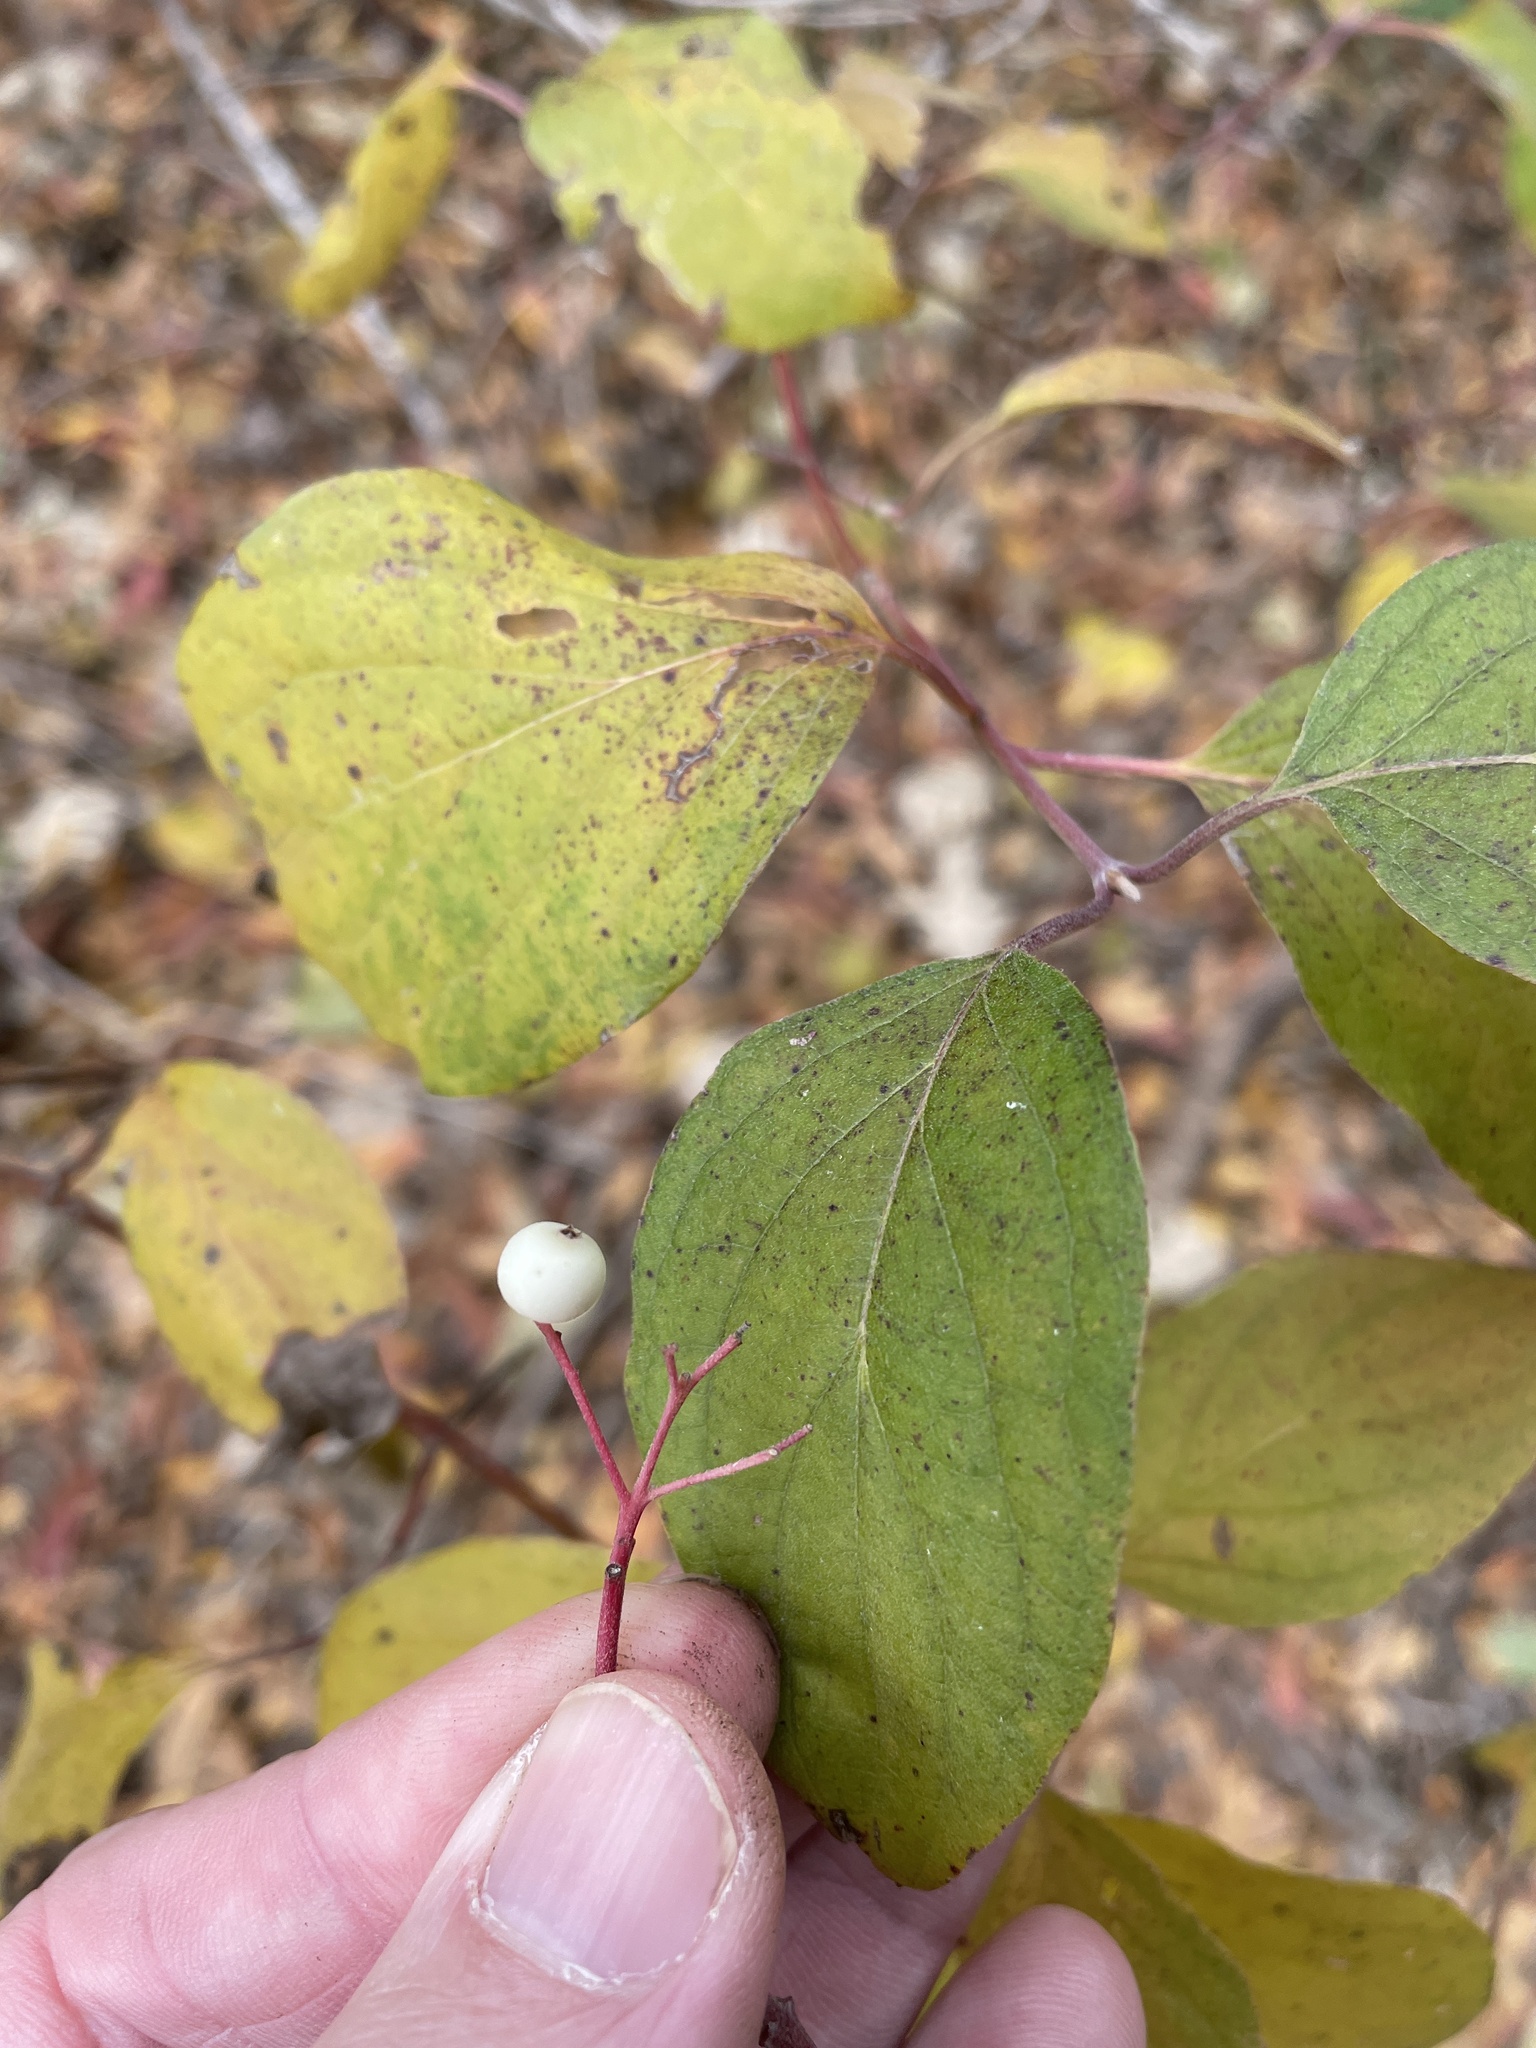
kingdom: Plantae
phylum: Tracheophyta
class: Magnoliopsida
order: Cornales
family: Cornaceae
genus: Cornus
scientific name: Cornus drummondii
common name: Rough-leaf dogwood
